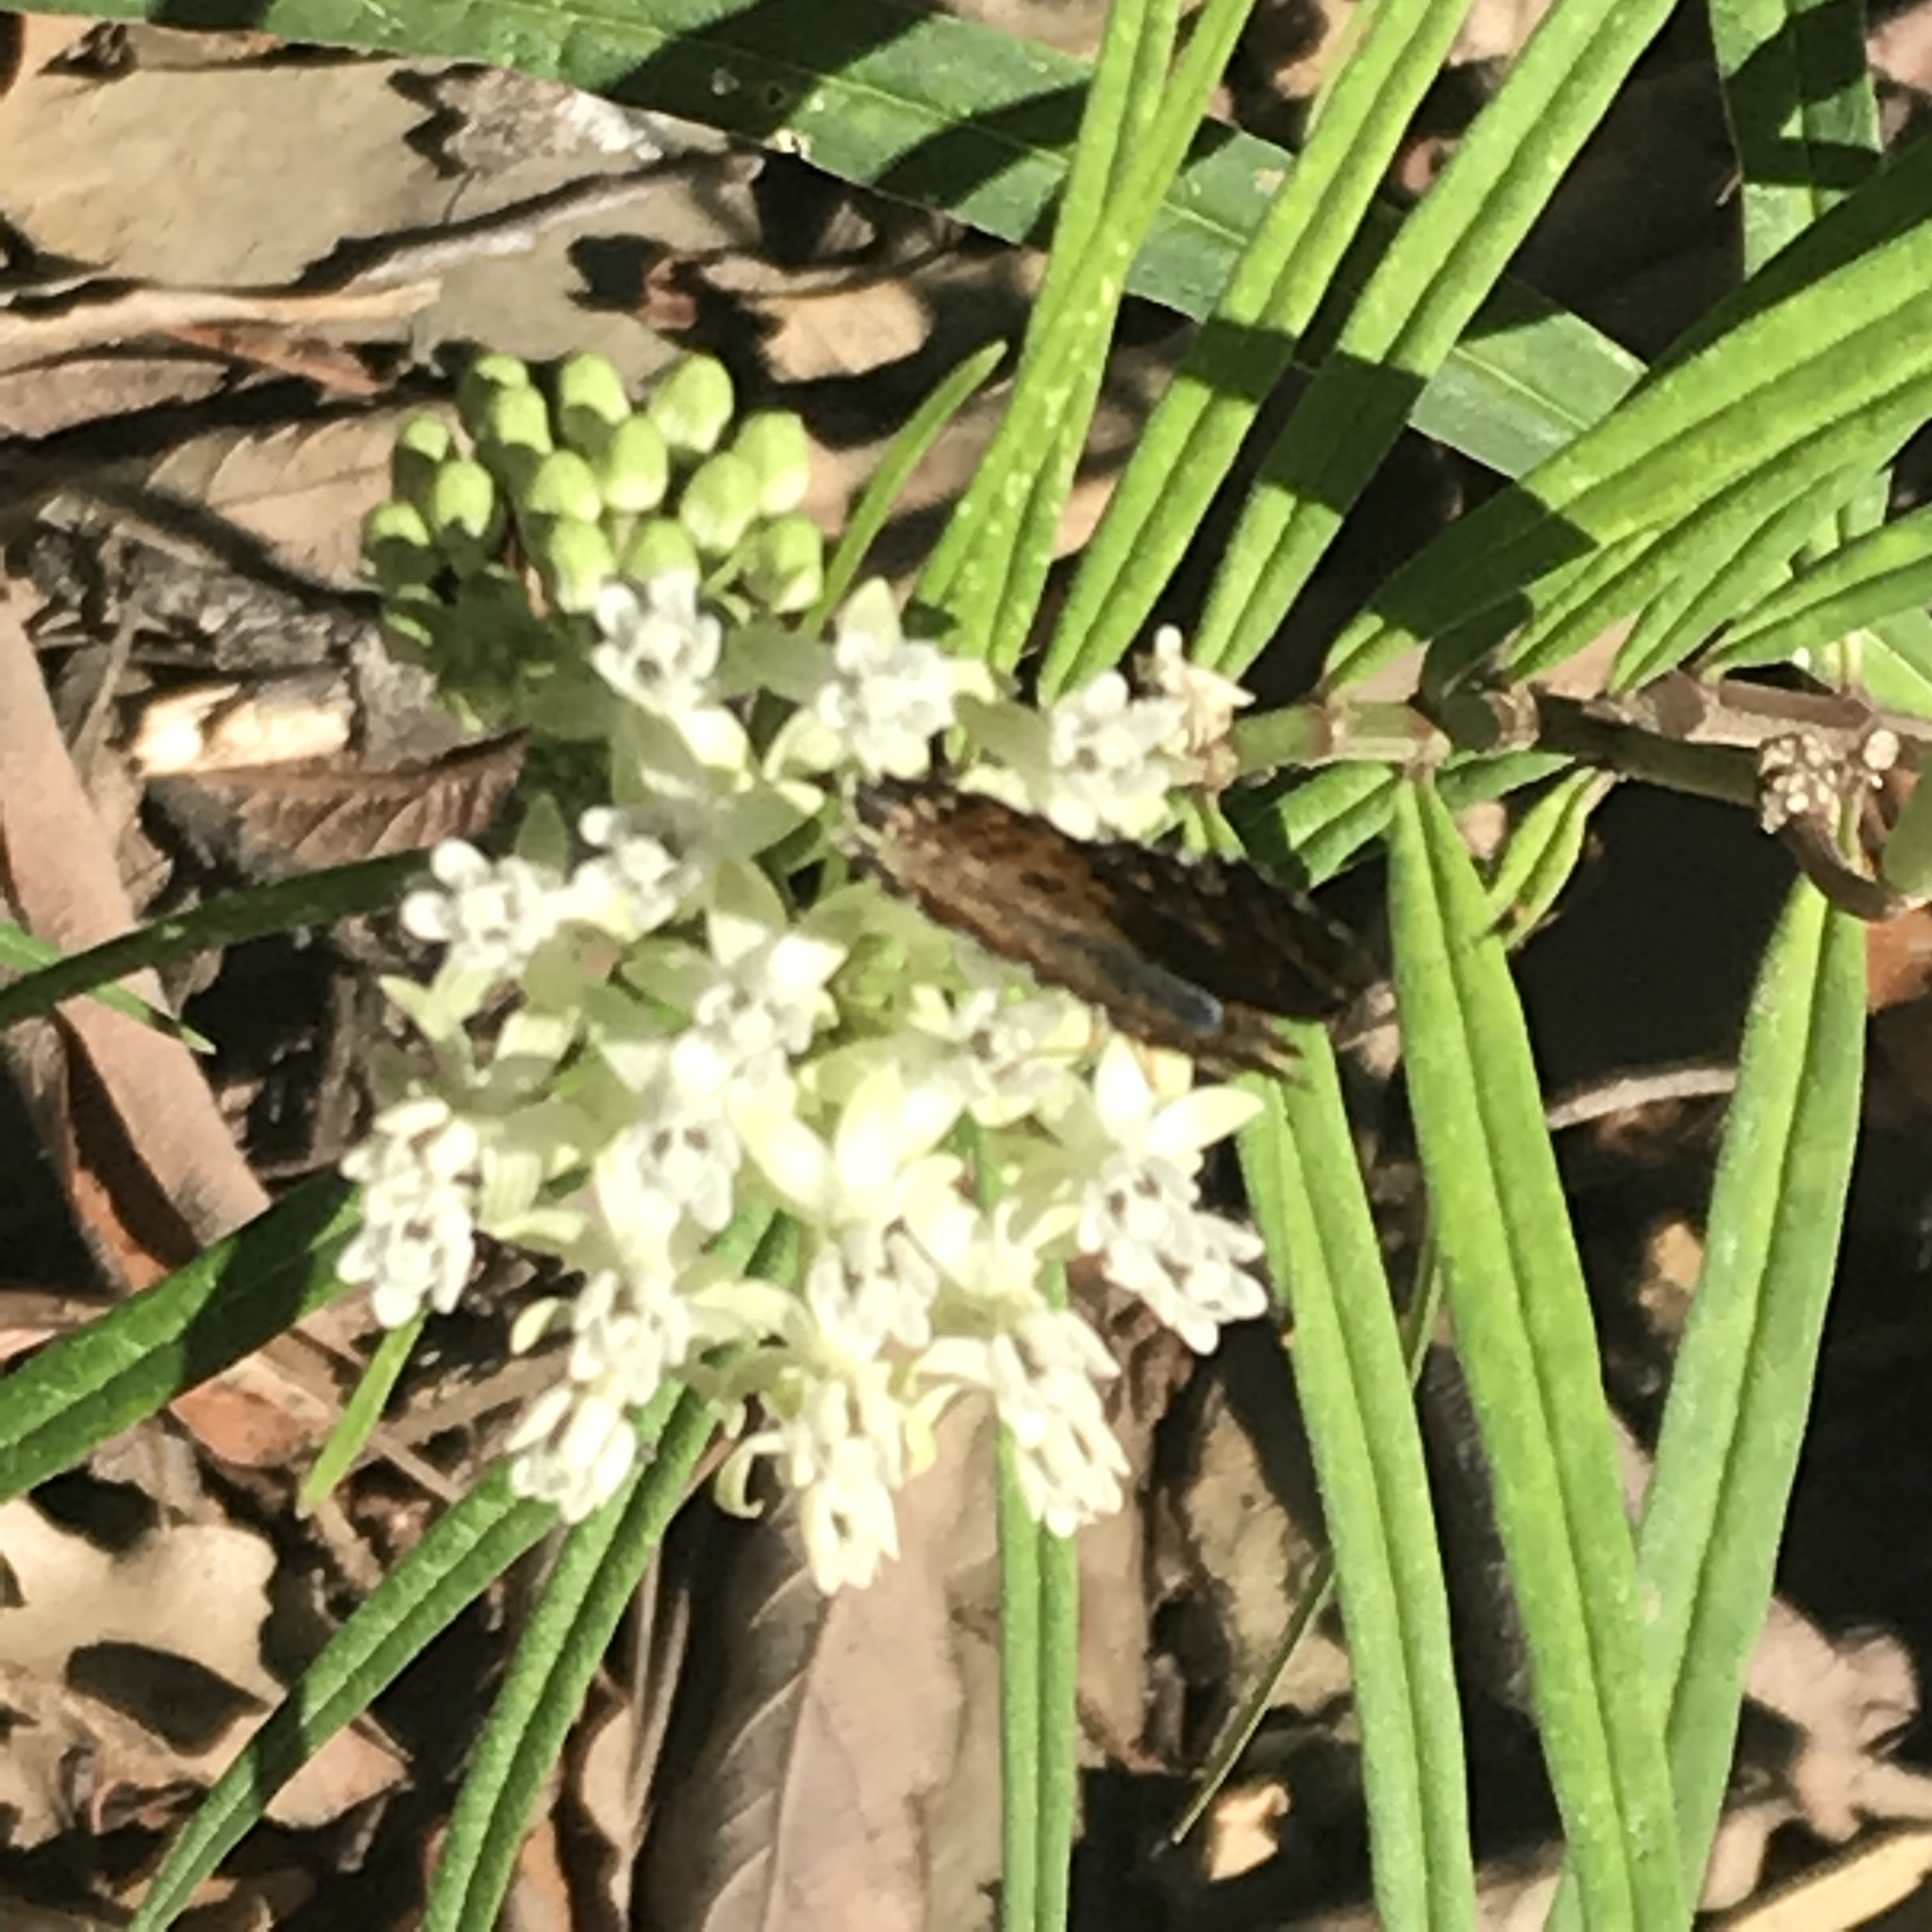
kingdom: Animalia
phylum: Arthropoda
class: Insecta
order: Lepidoptera
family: Nymphalidae
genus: Phyciodes
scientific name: Phyciodes vesta
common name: Vesta crescent
